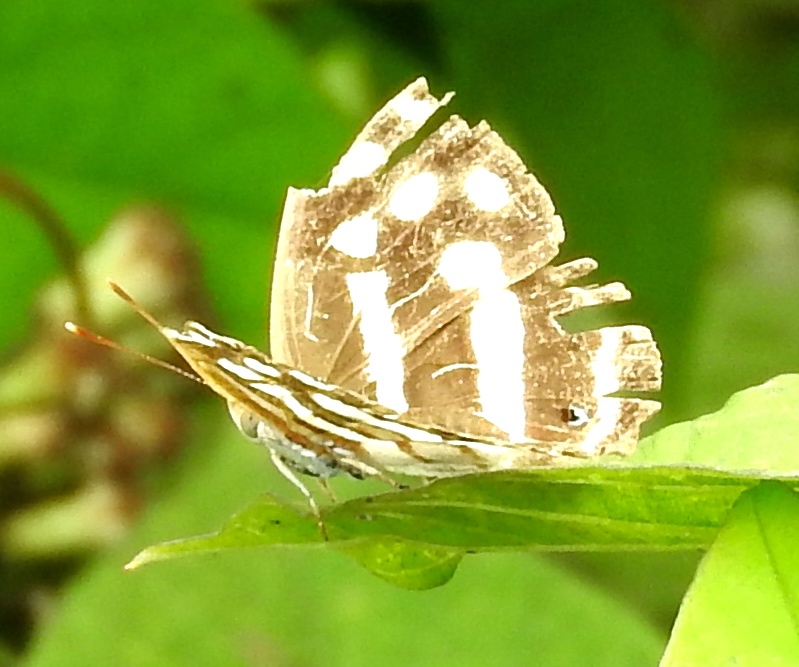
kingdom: Animalia
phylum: Arthropoda
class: Insecta
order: Lepidoptera
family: Nymphalidae
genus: Dynamine
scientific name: Dynamine mylitta
